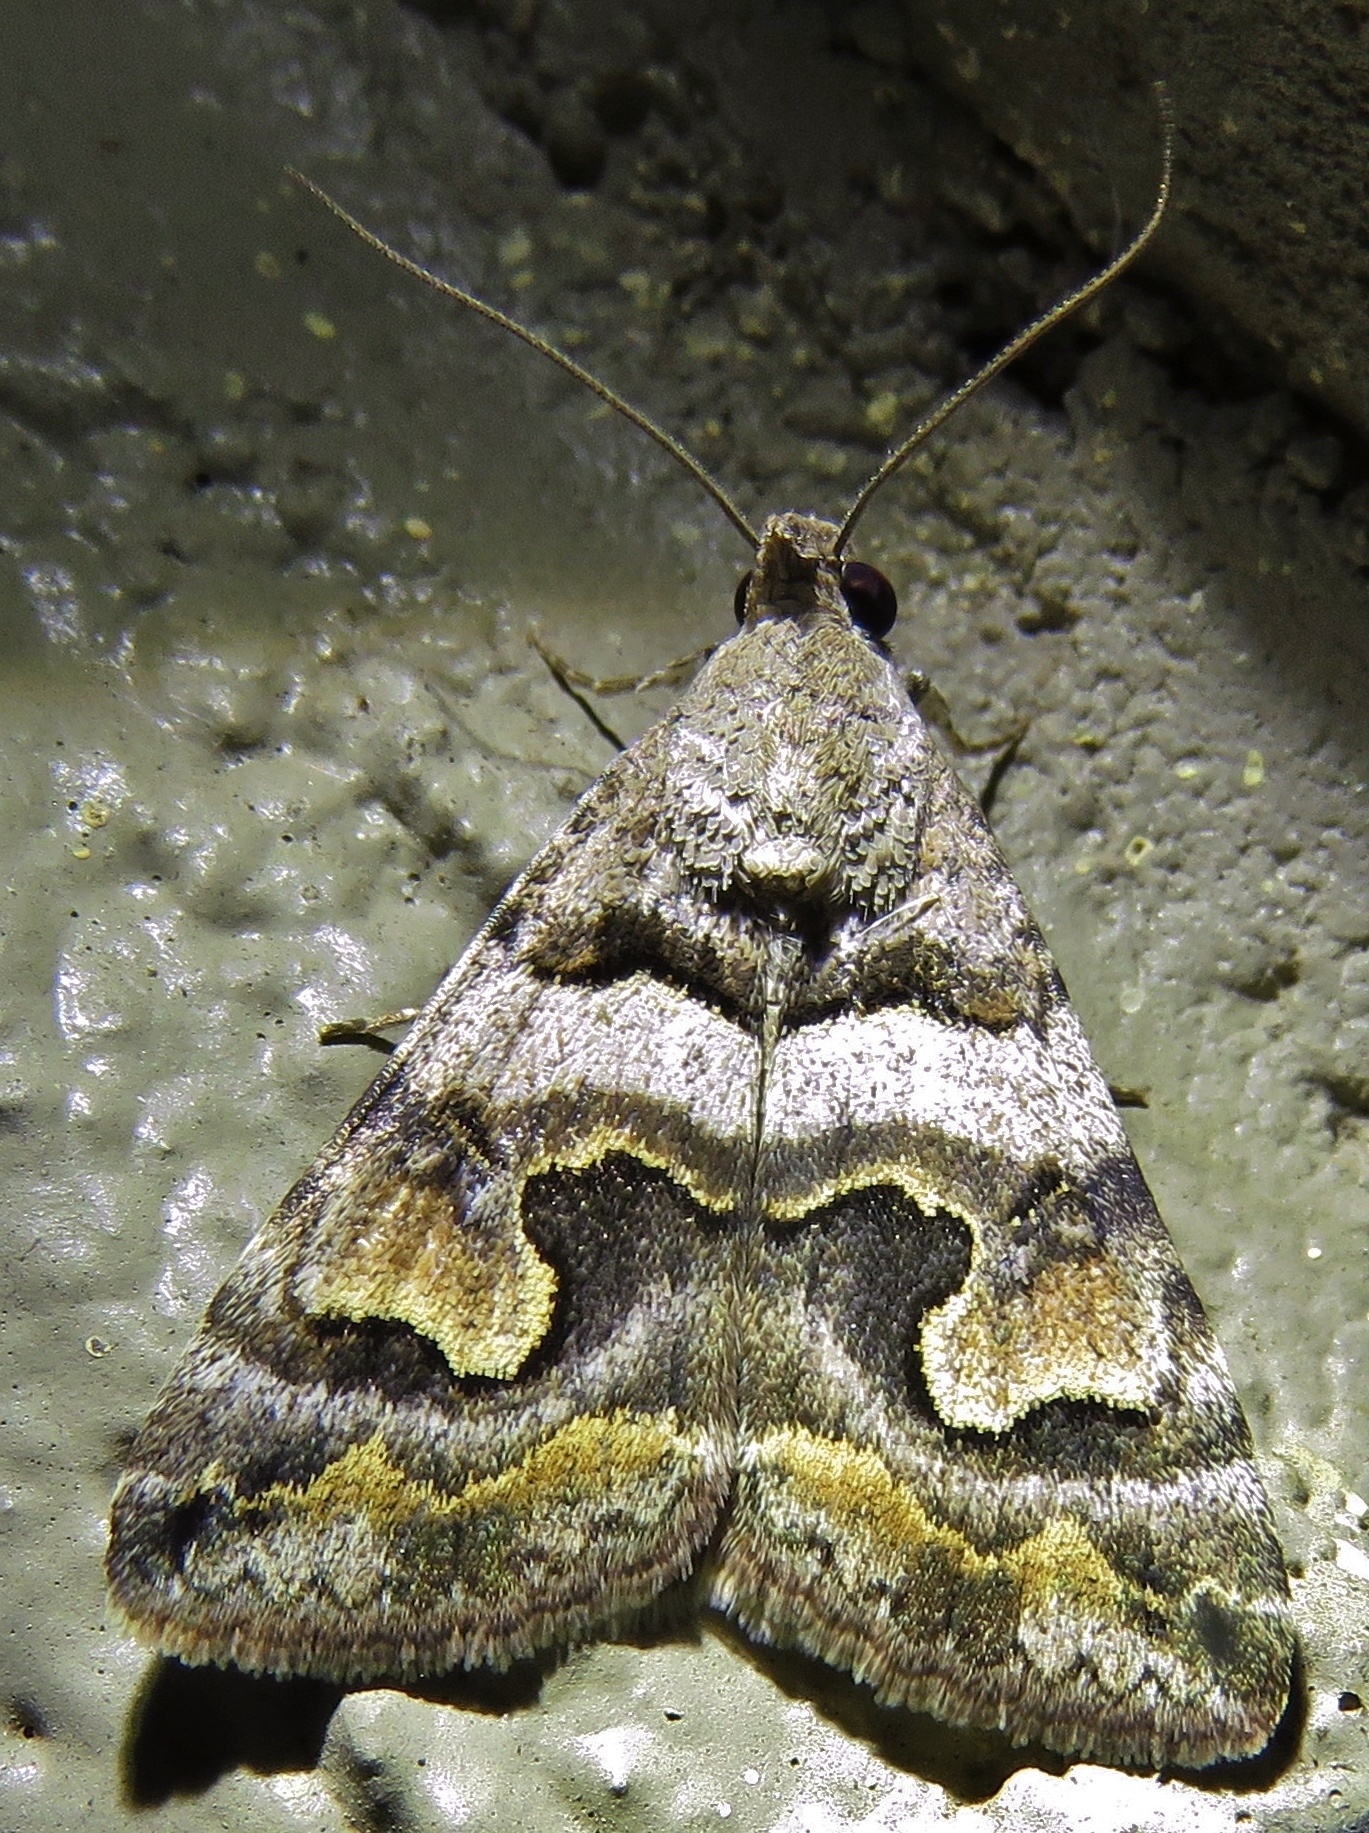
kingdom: Animalia
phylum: Arthropoda
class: Insecta
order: Lepidoptera
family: Erebidae
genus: Bulia
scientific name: Bulia deducta
